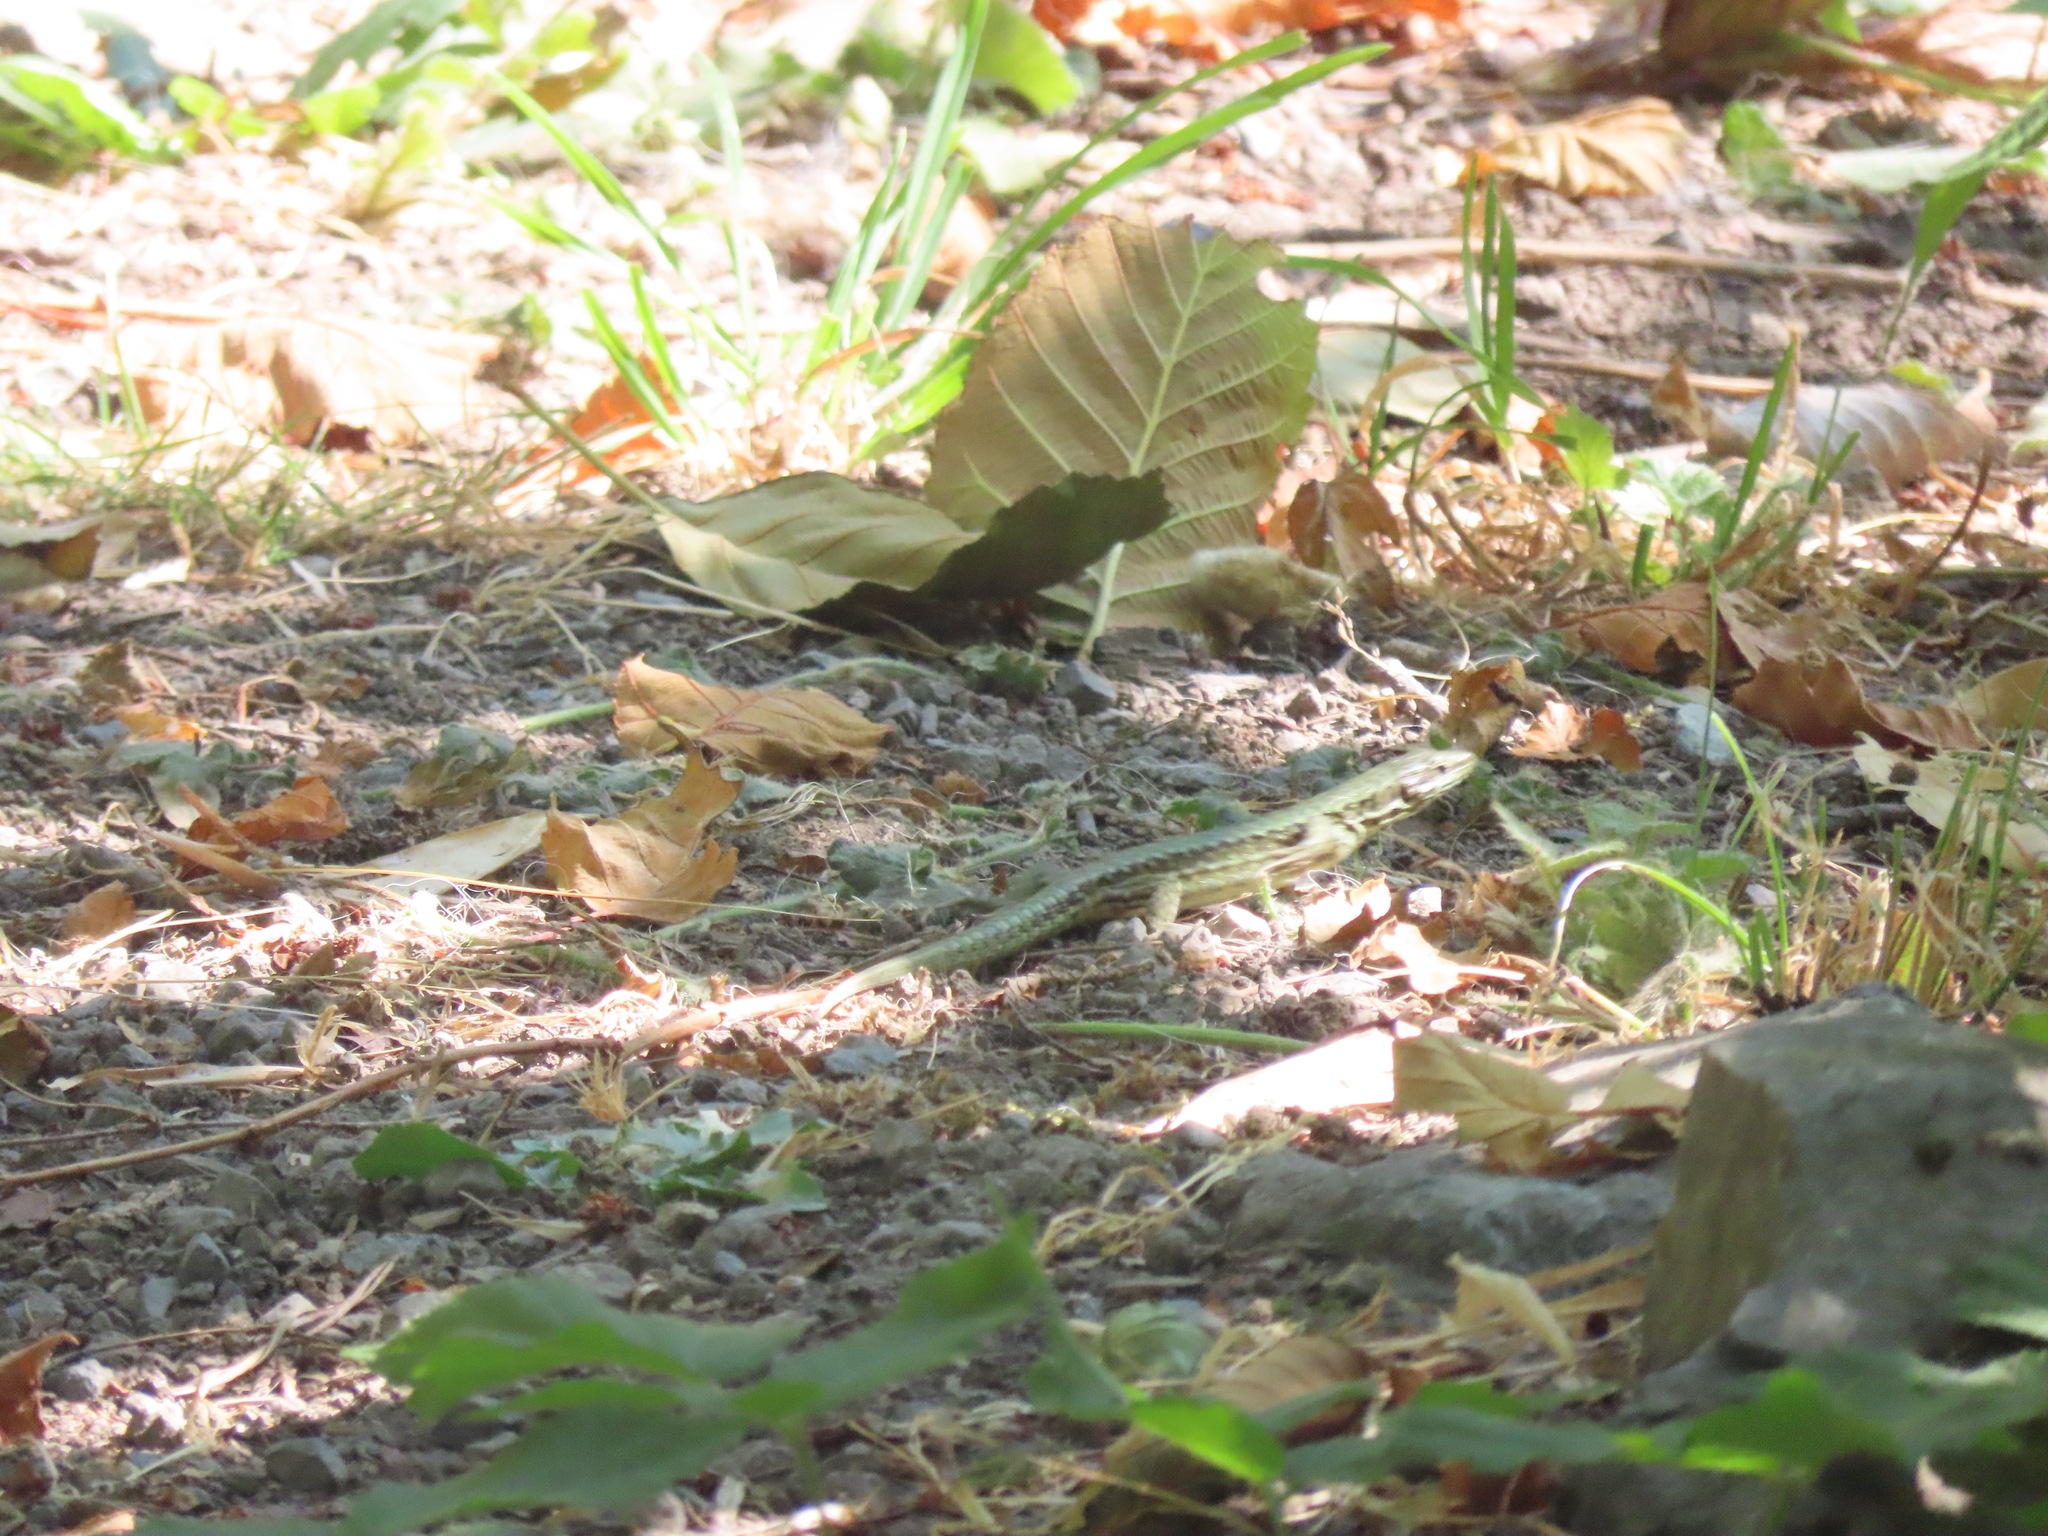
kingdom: Animalia
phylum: Chordata
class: Squamata
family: Lacertidae
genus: Podarcis
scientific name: Podarcis muralis
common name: Common wall lizard
